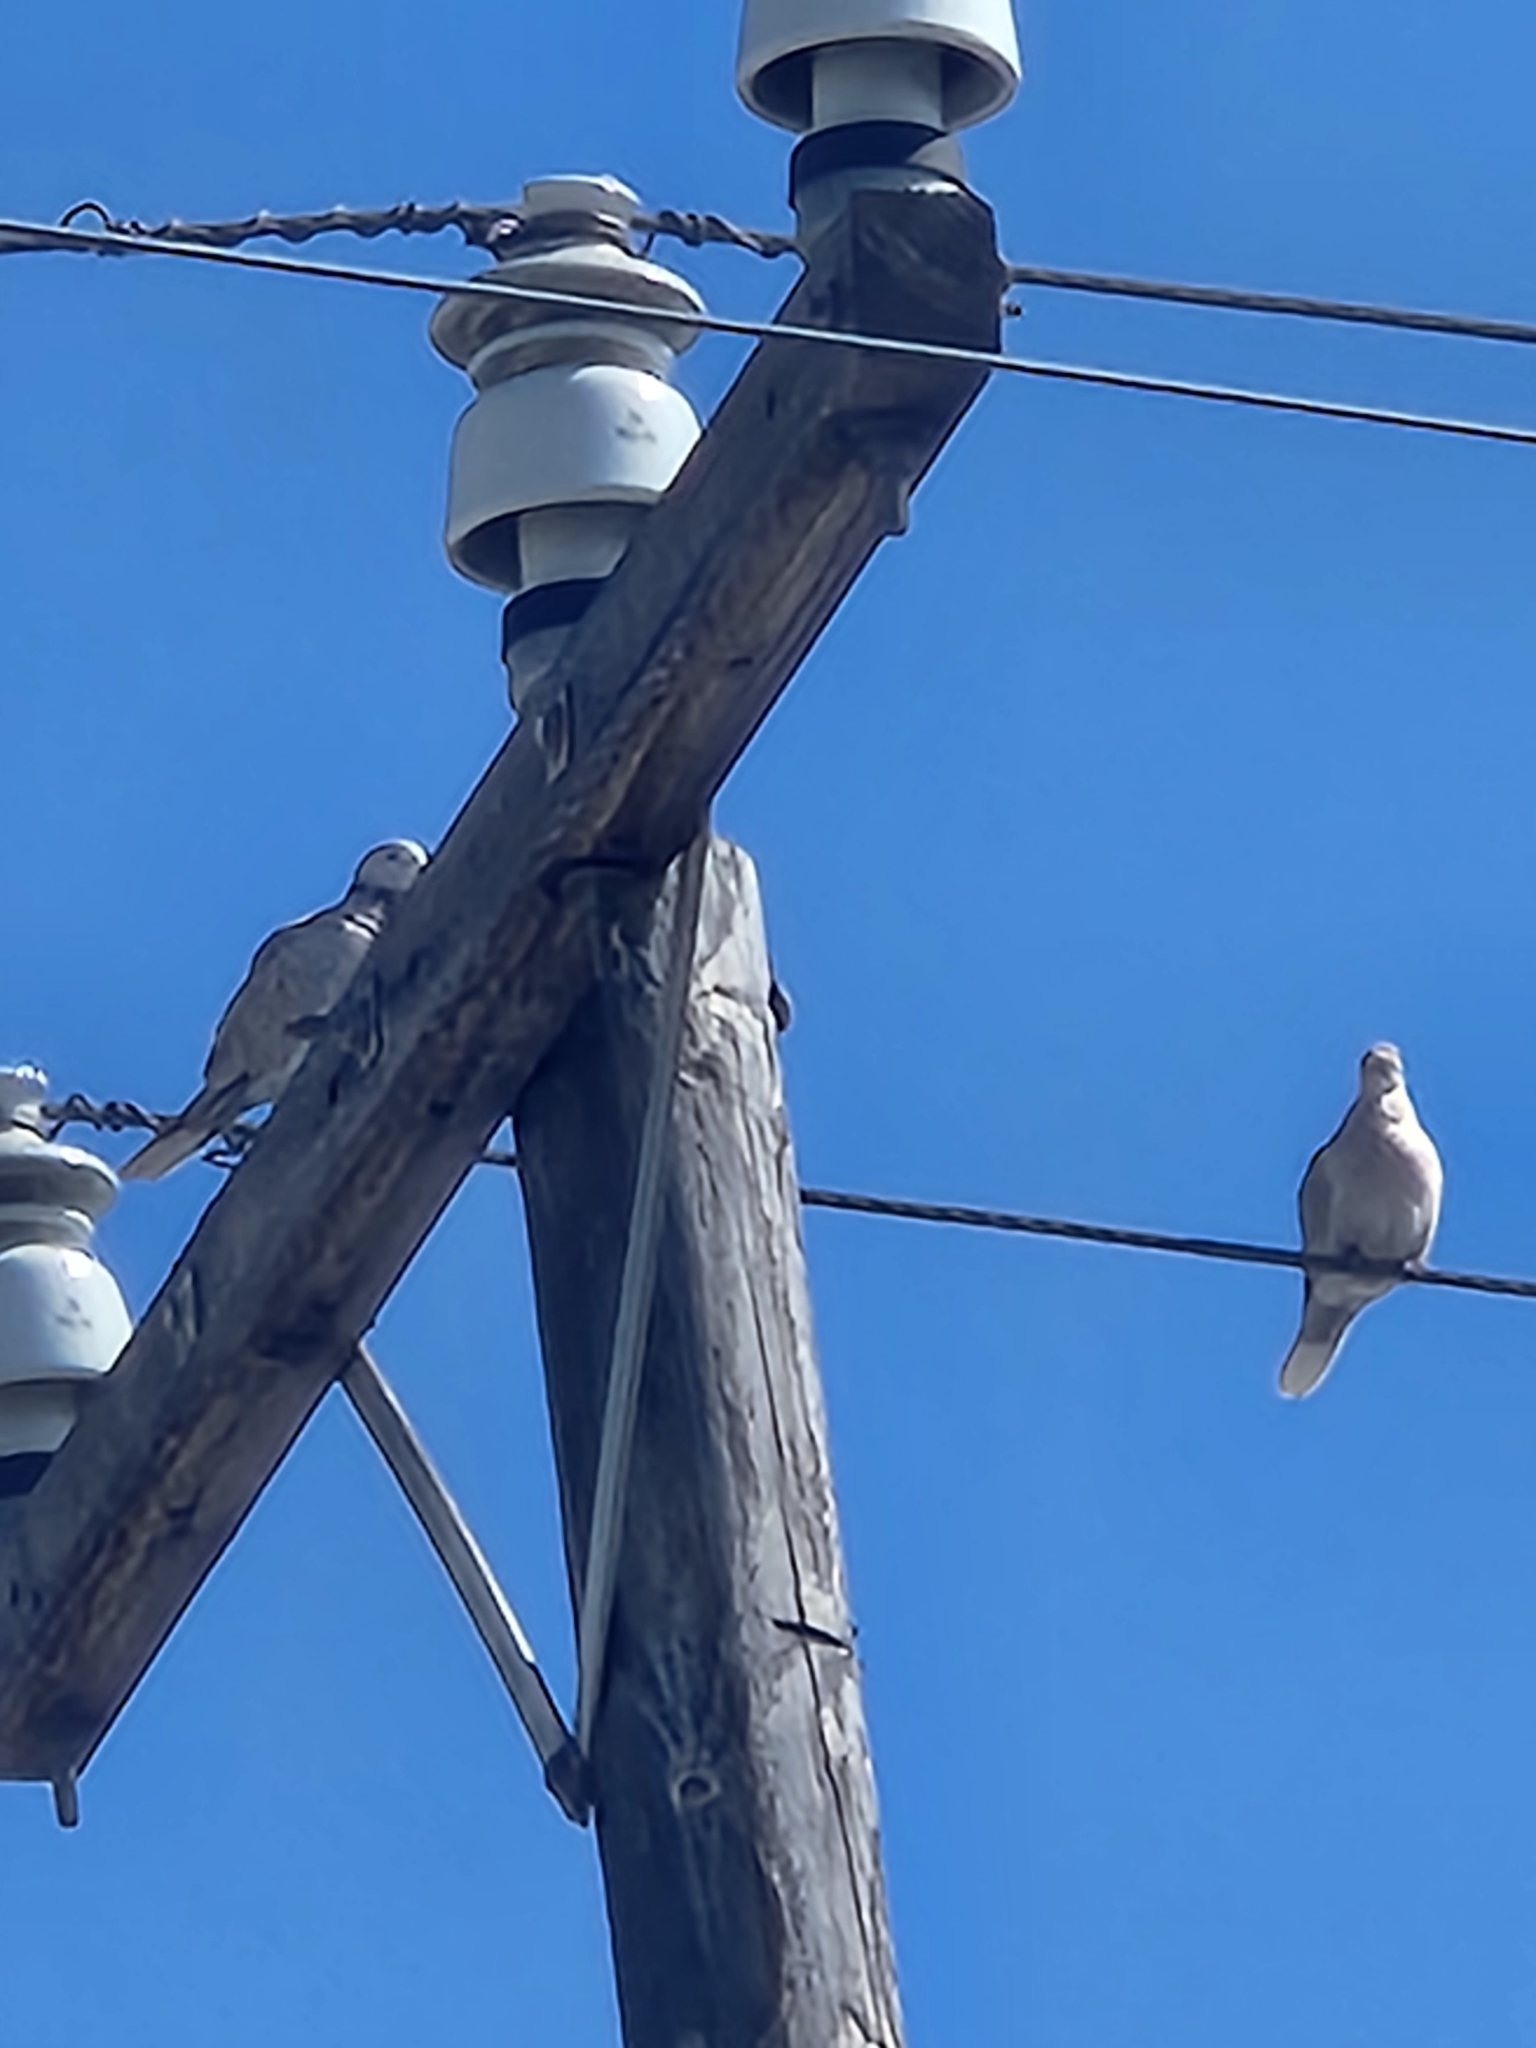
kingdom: Animalia
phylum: Chordata
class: Aves
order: Columbiformes
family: Columbidae
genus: Streptopelia
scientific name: Streptopelia decaocto
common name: Eurasian collared dove
